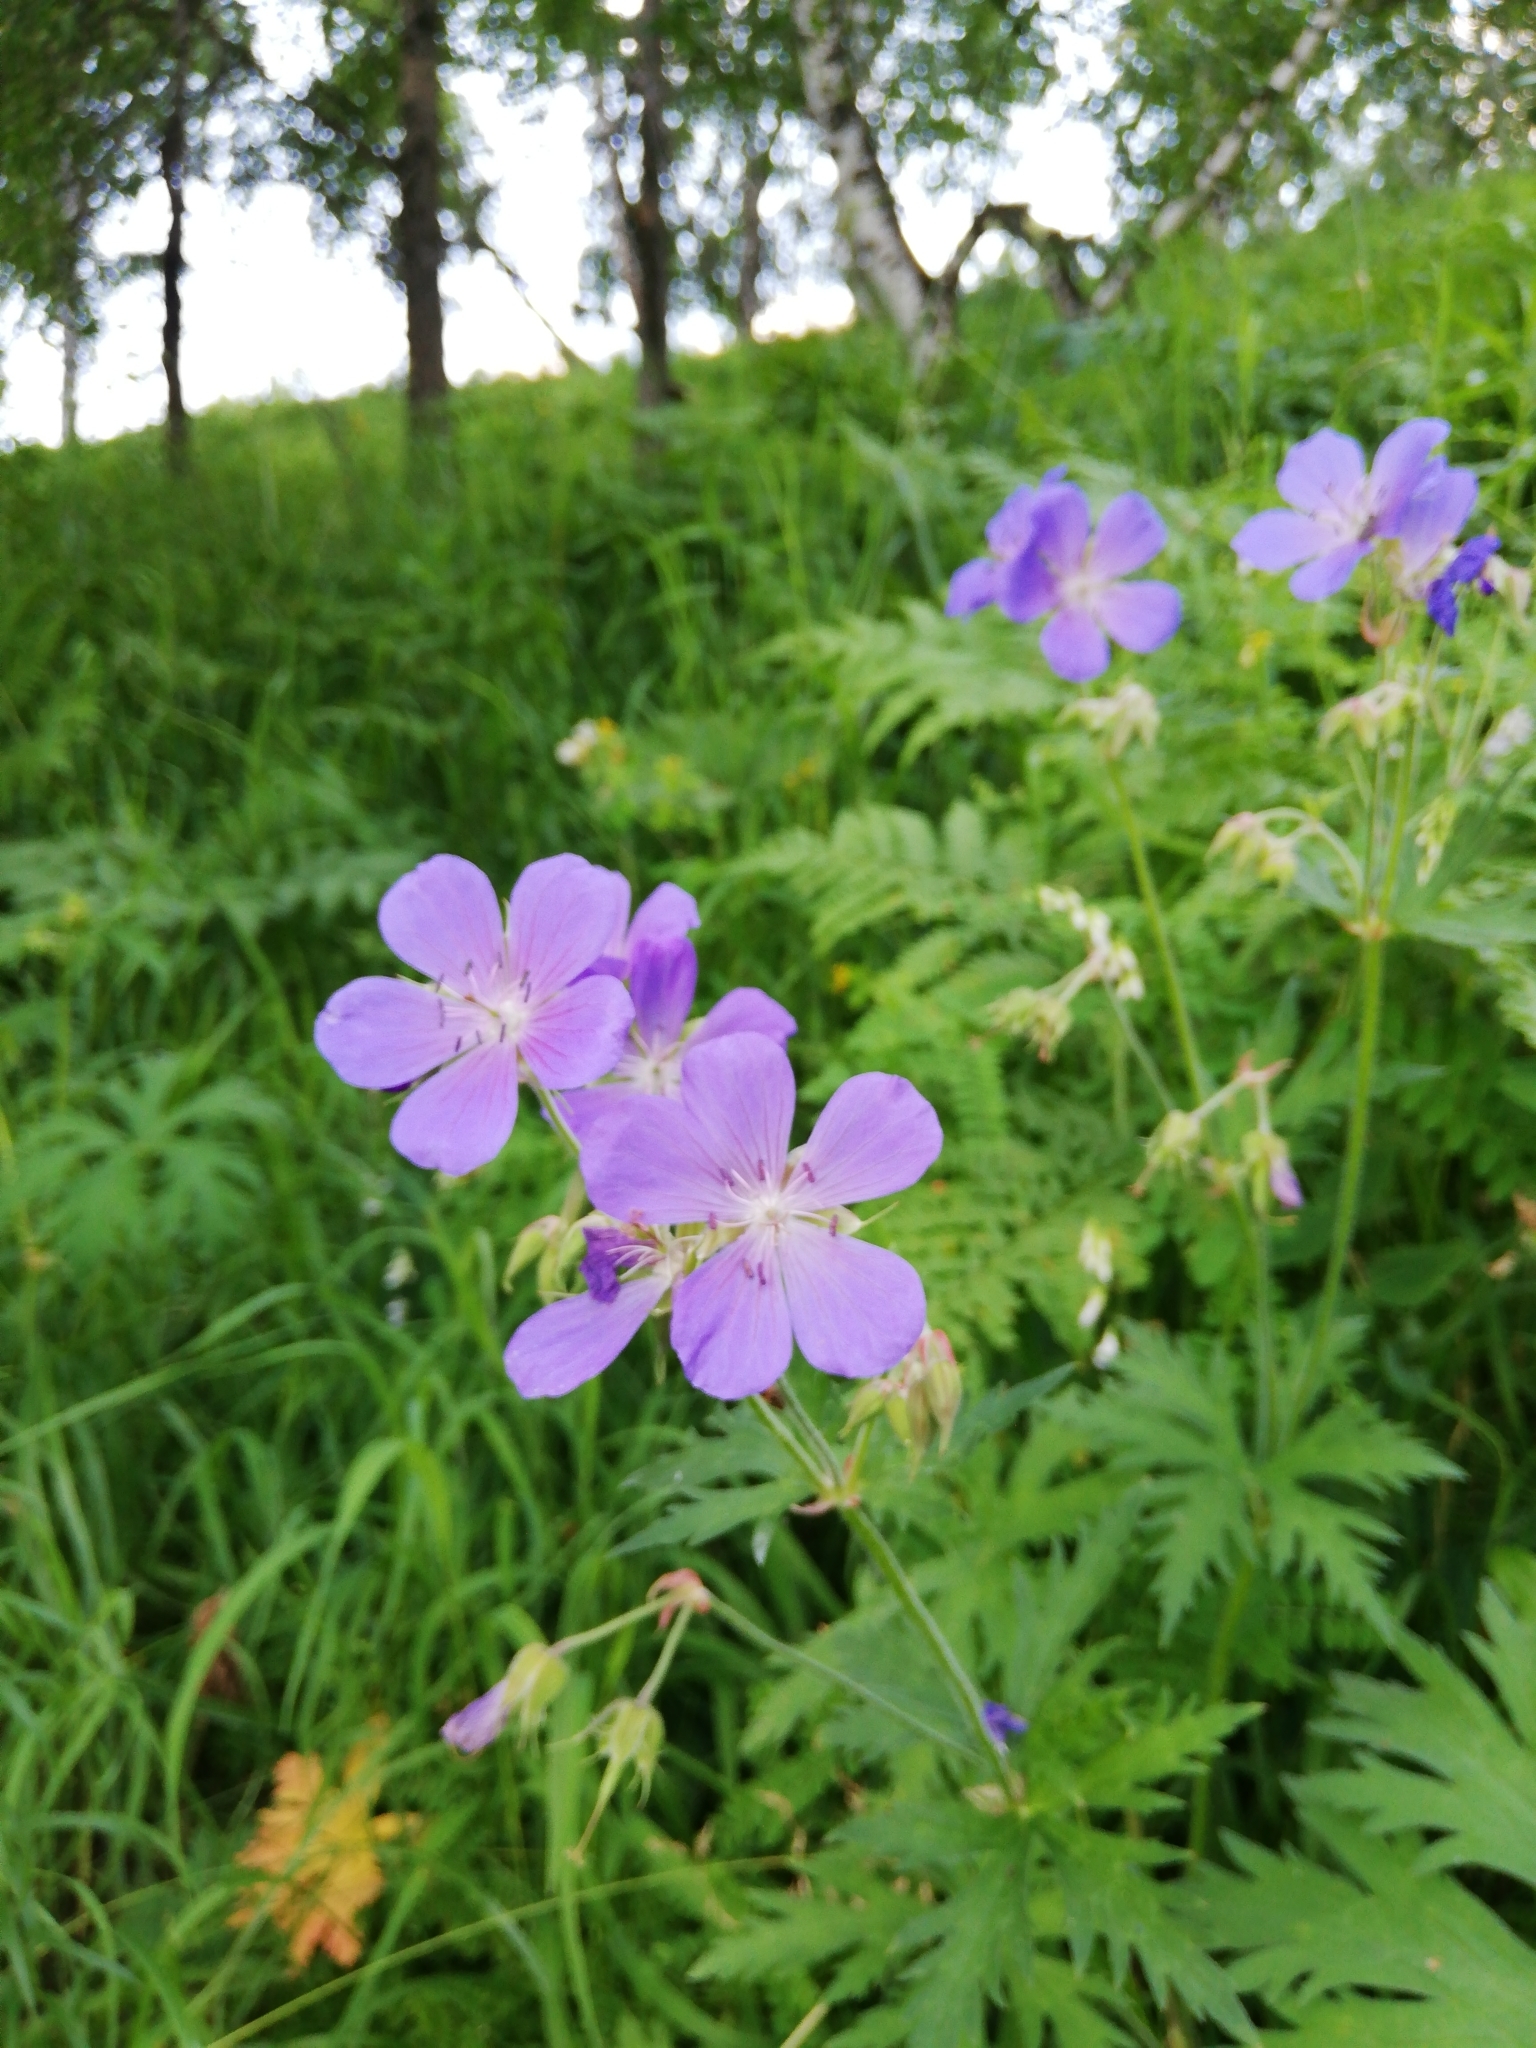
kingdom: Plantae
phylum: Tracheophyta
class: Magnoliopsida
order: Geraniales
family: Geraniaceae
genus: Geranium
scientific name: Geranium pratense
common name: Meadow crane's-bill
